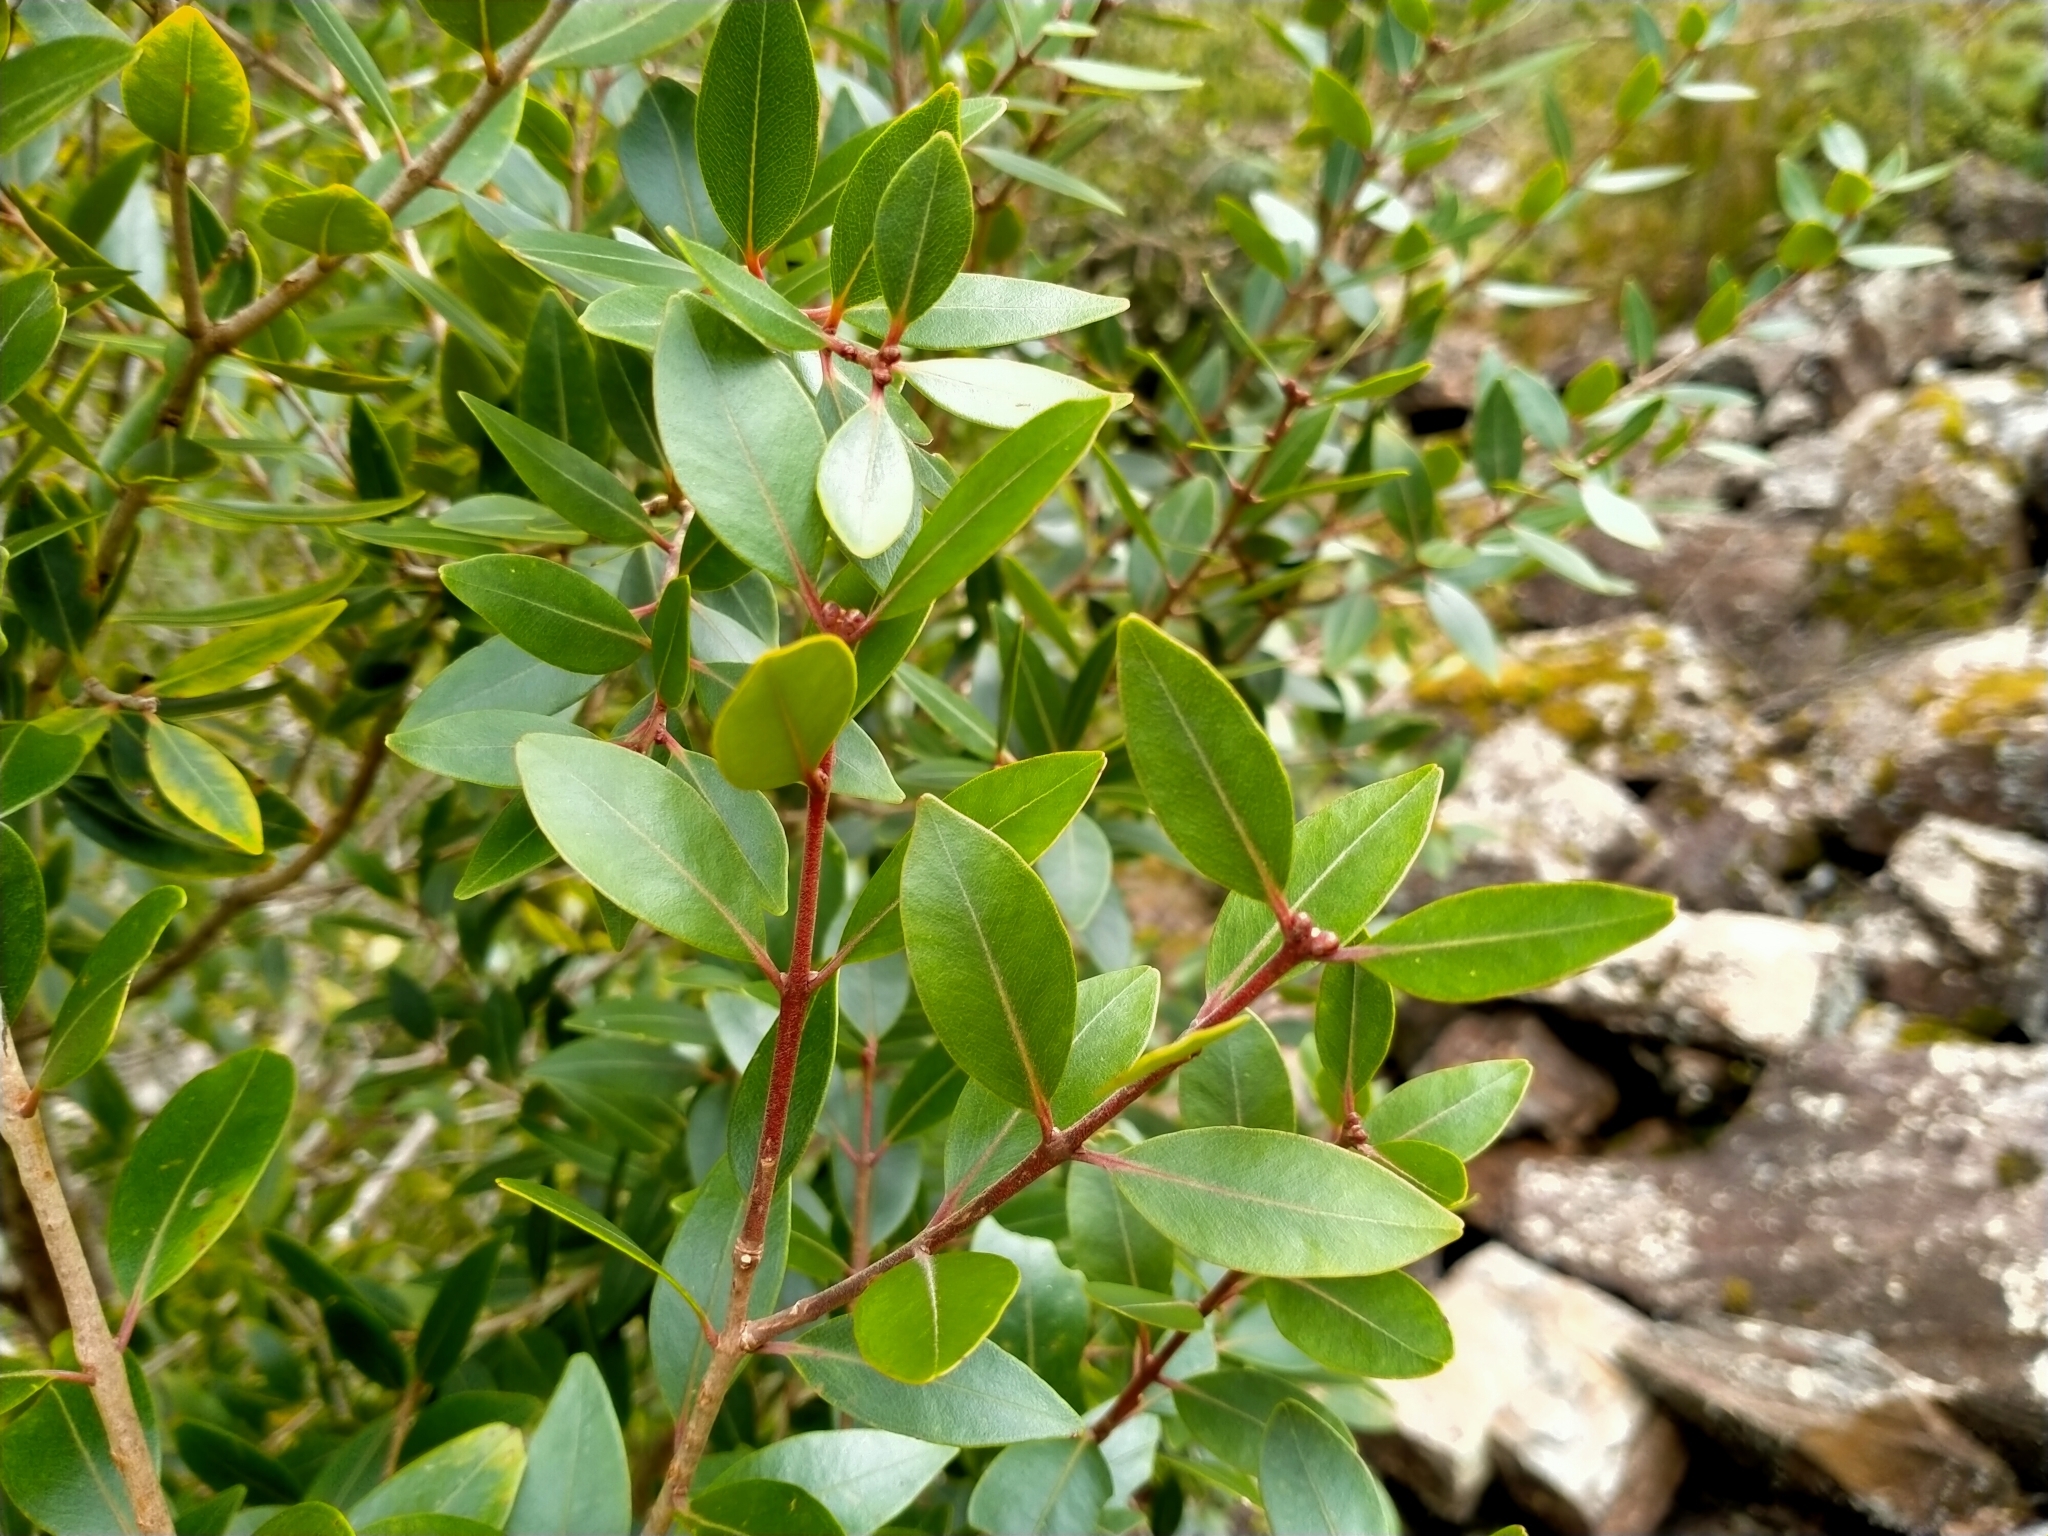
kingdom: Plantae
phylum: Tracheophyta
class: Magnoliopsida
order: Myrtales
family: Myrtaceae
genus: Metrosideros
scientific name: Metrosideros robusta
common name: Northern rata
